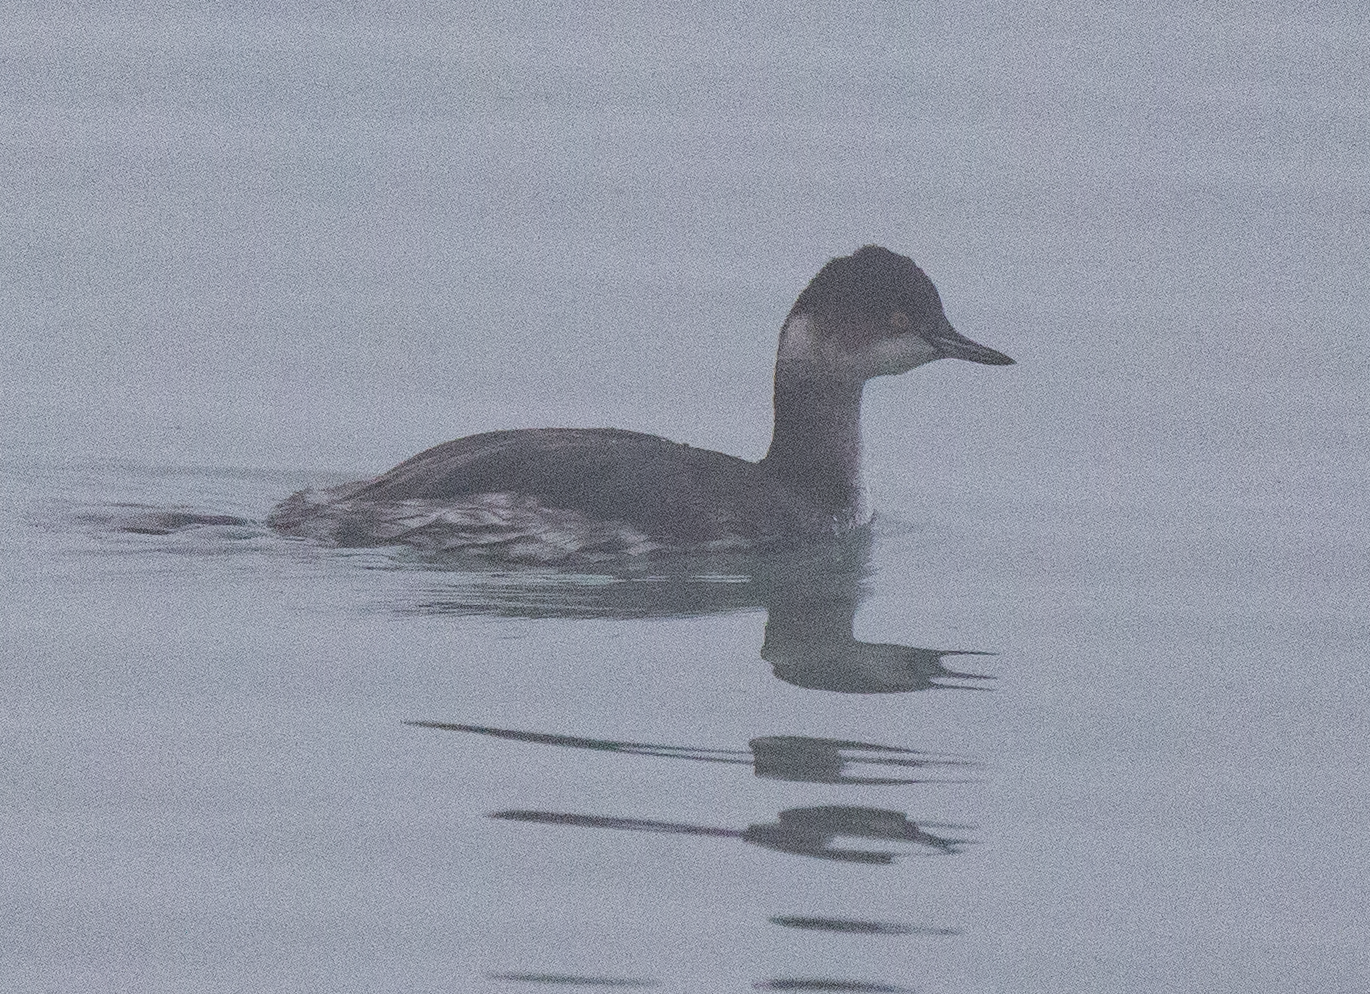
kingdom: Animalia
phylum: Chordata
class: Aves
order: Podicipediformes
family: Podicipedidae
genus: Podiceps
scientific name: Podiceps nigricollis
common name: Black-necked grebe
